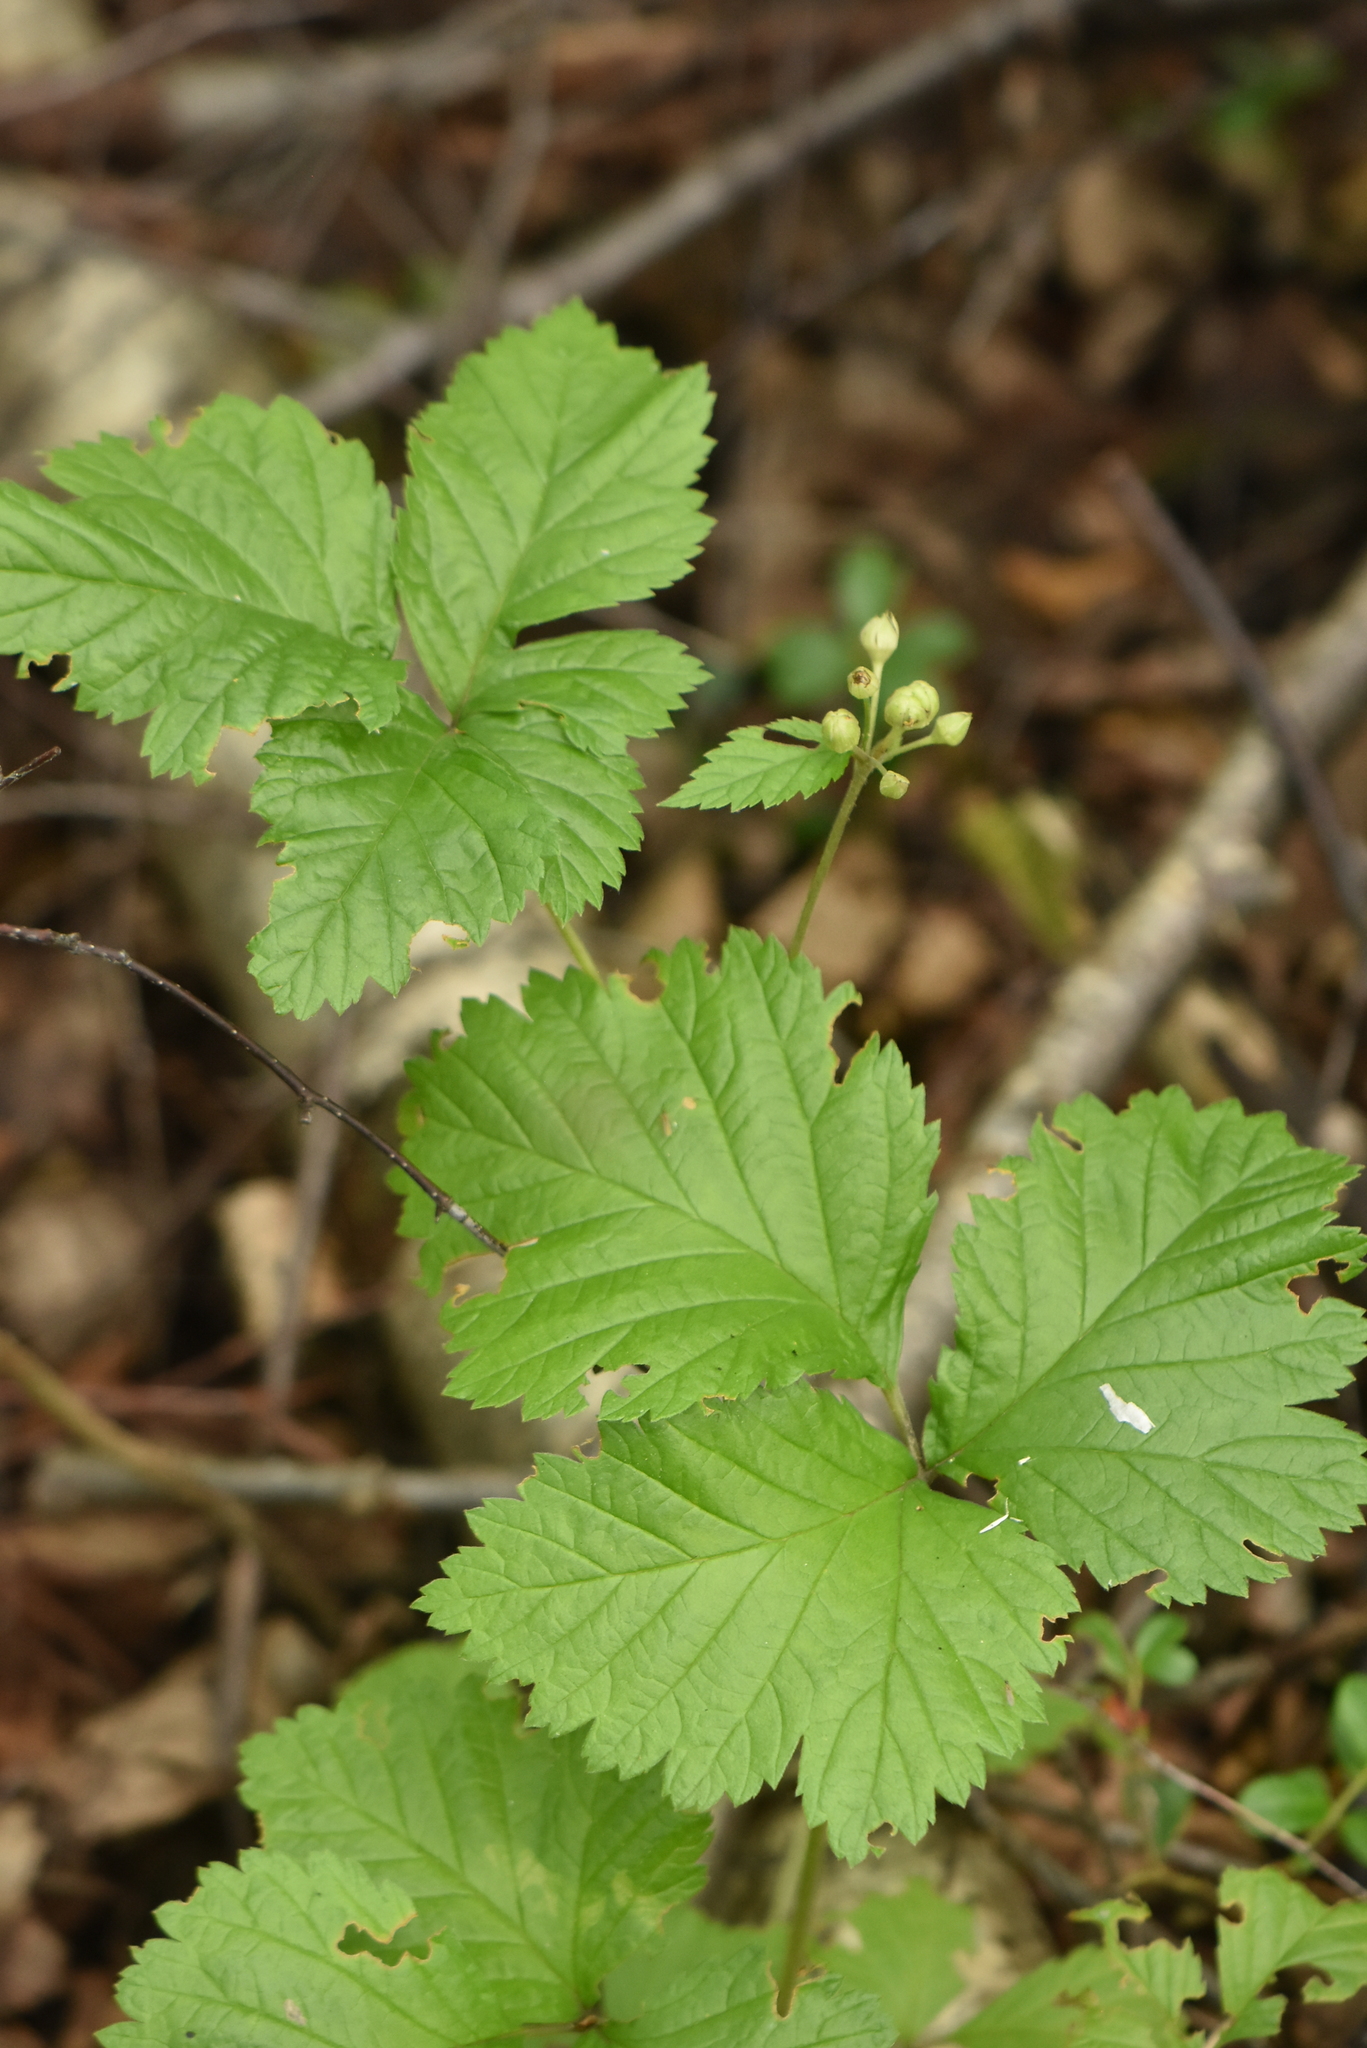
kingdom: Plantae
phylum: Tracheophyta
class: Magnoliopsida
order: Rosales
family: Rosaceae
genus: Rubus
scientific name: Rubus saxatilis
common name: Stone bramble
